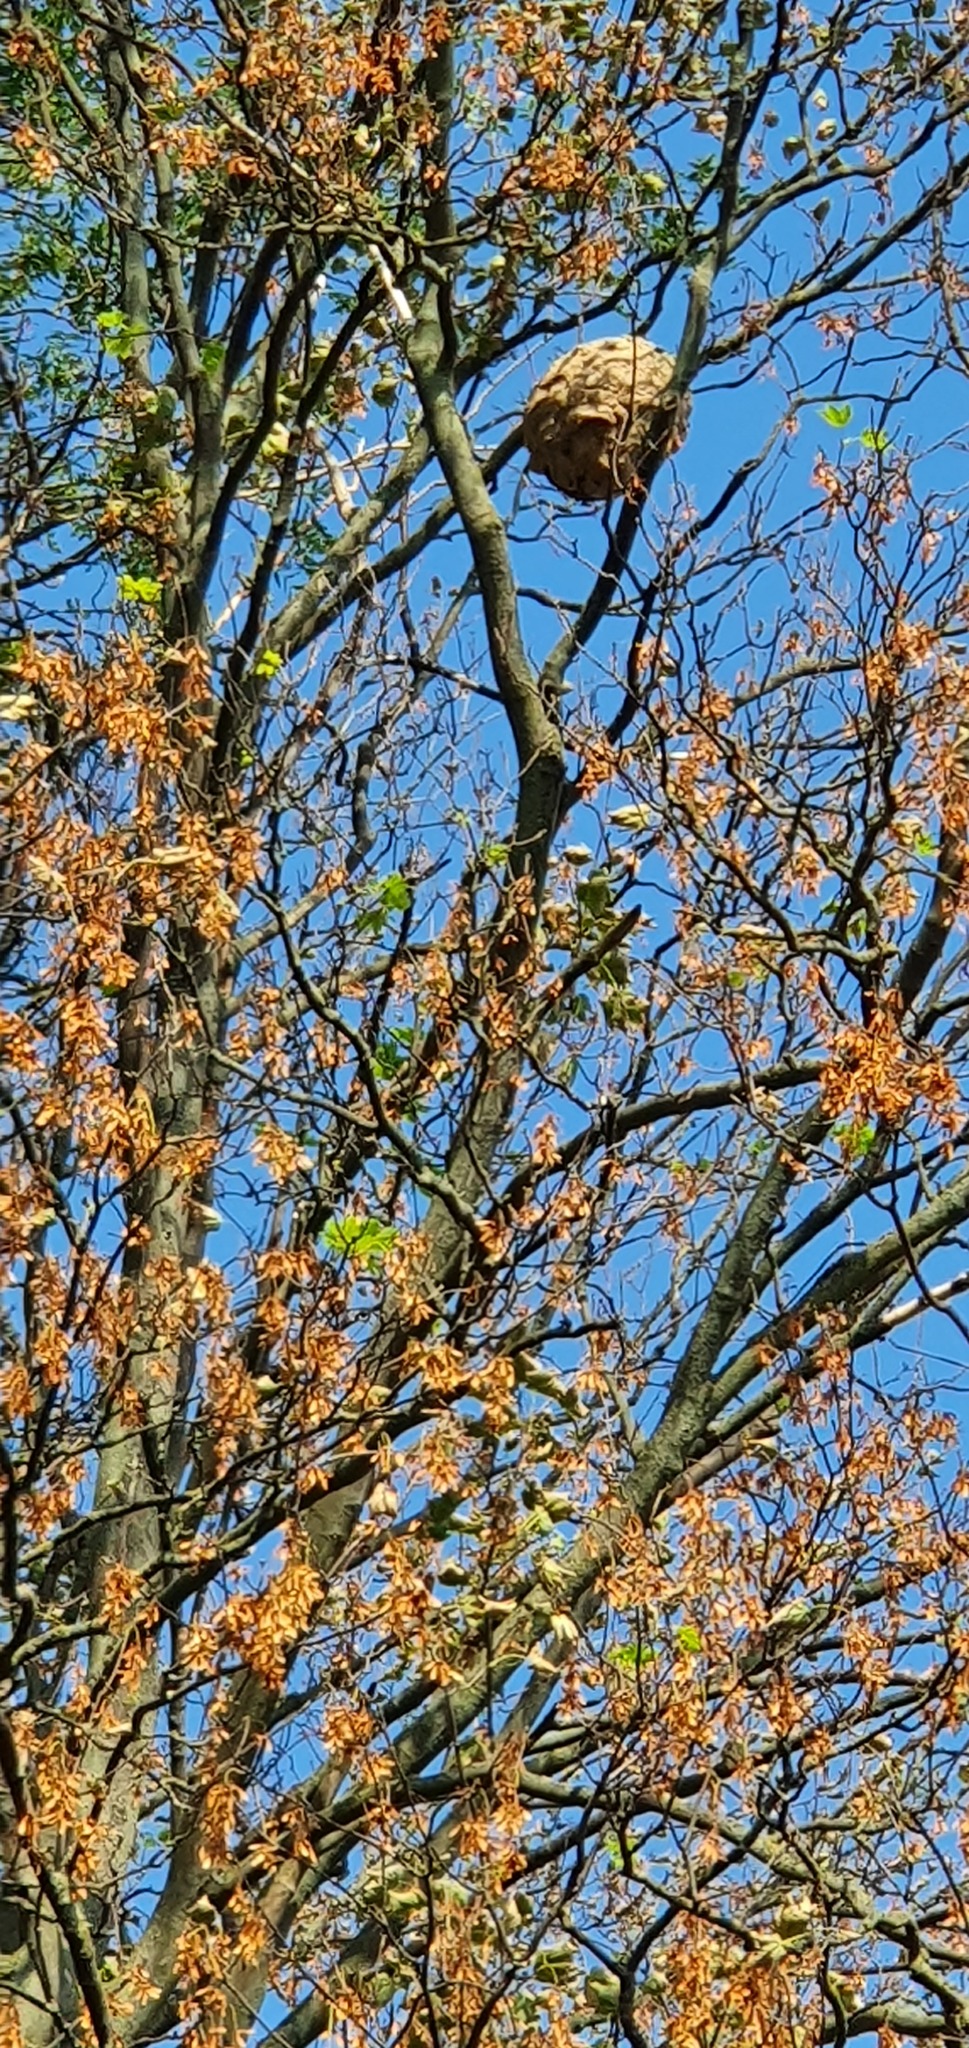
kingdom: Animalia
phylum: Arthropoda
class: Insecta
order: Hymenoptera
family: Vespidae
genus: Vespa
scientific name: Vespa velutina
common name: Asian hornet
